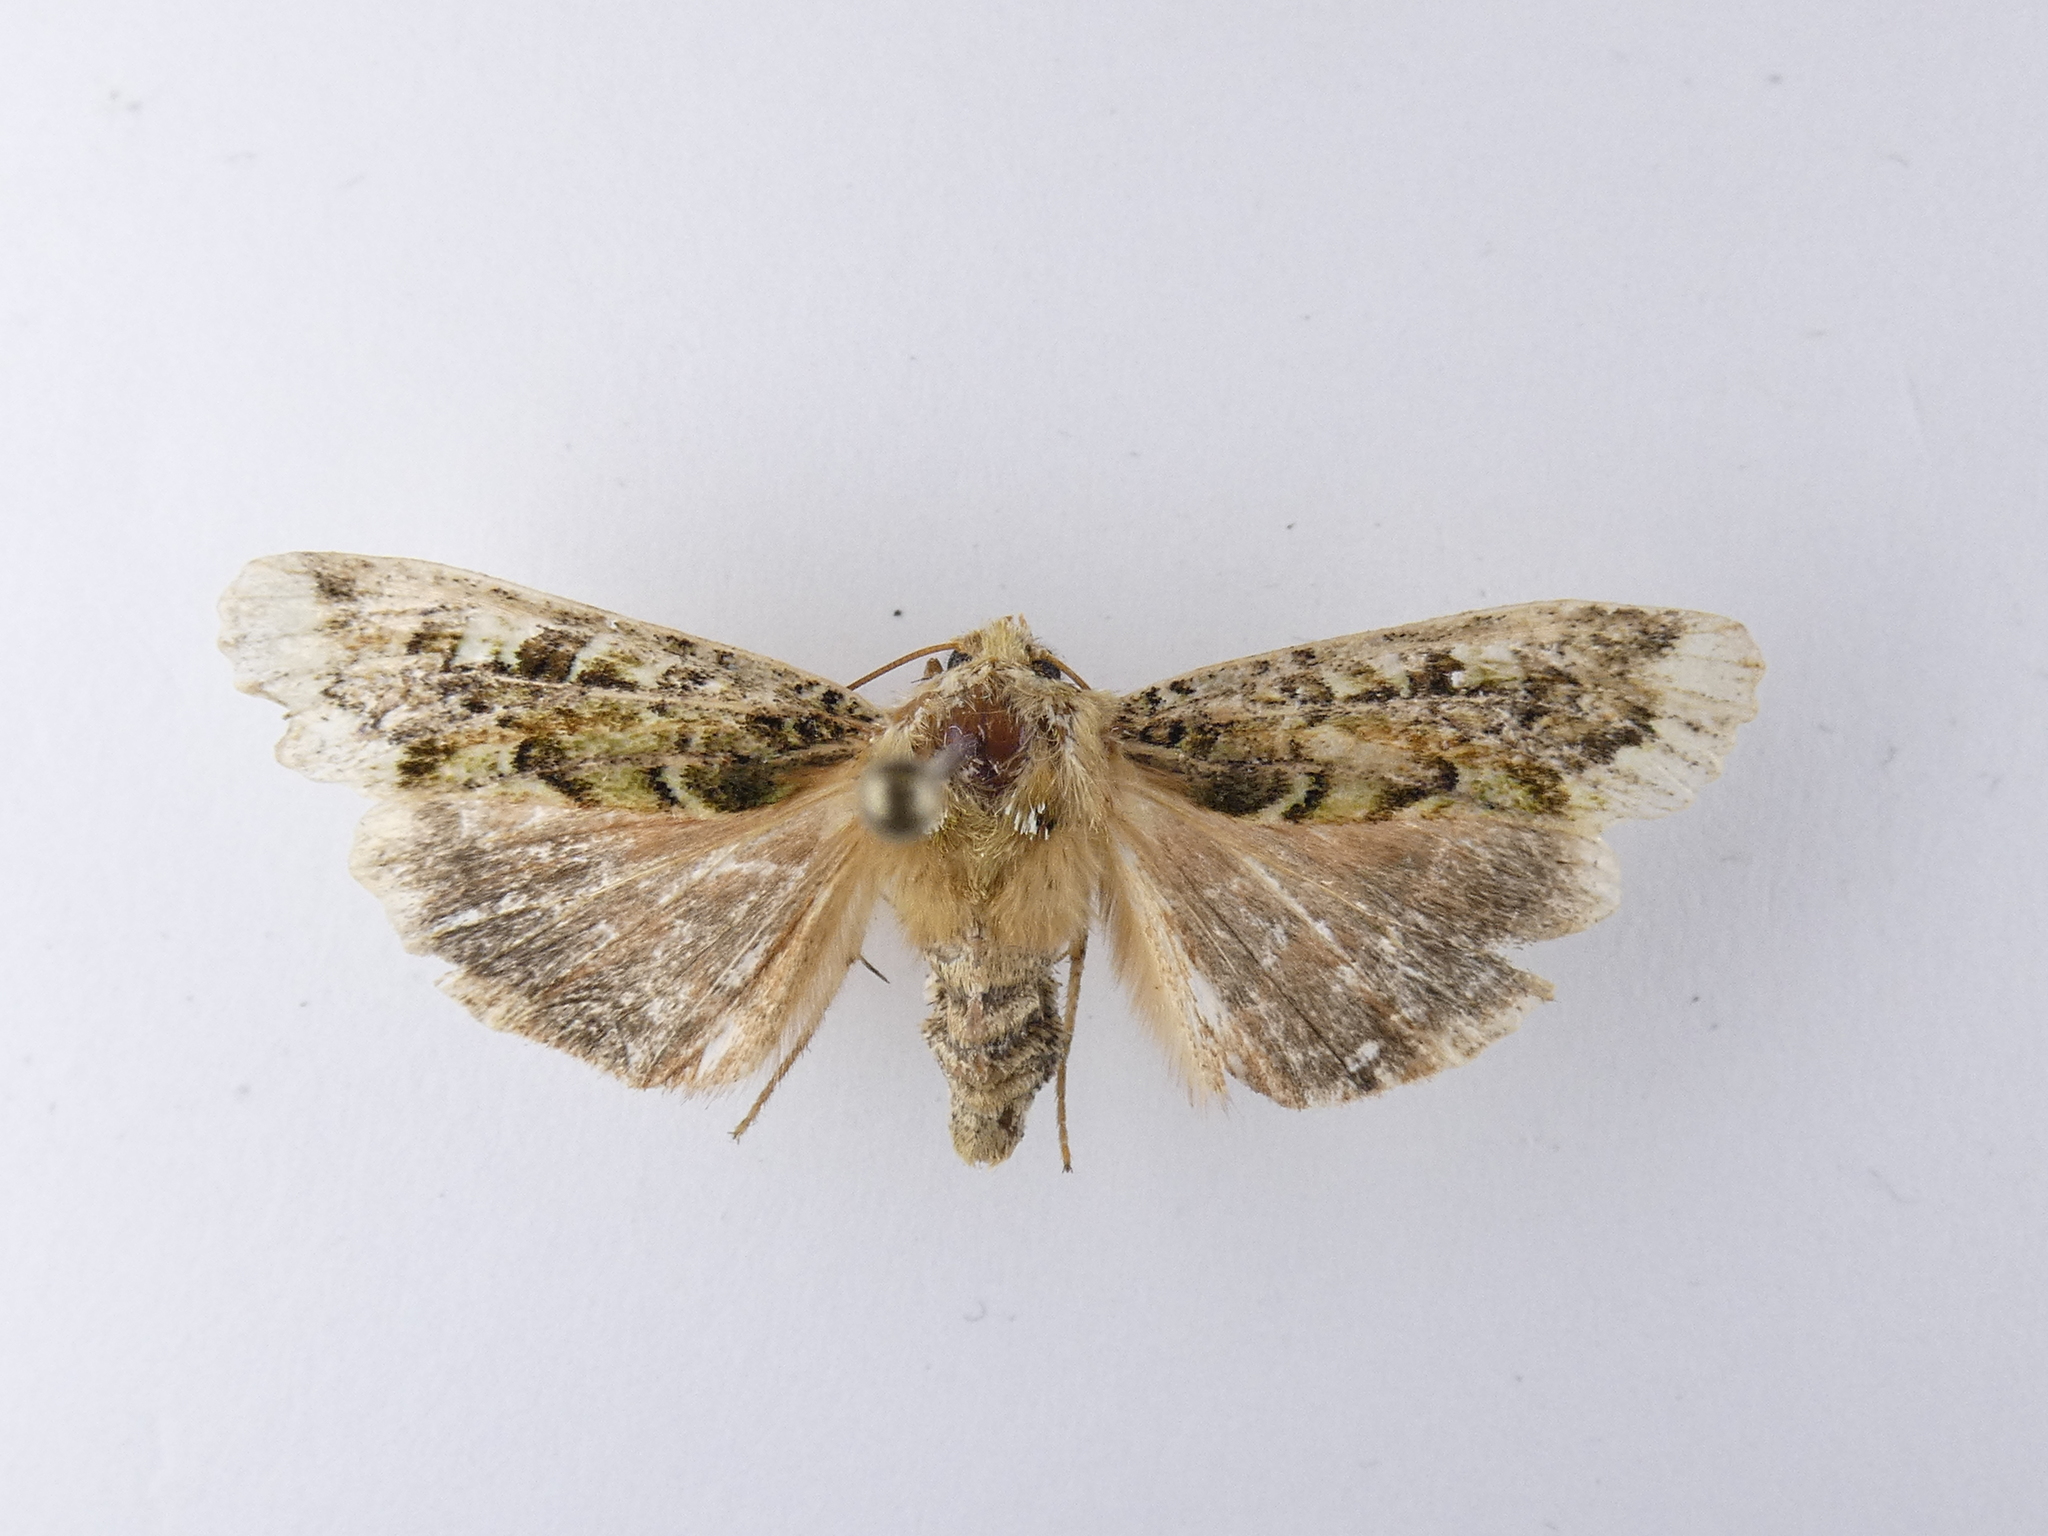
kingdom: Animalia
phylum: Arthropoda
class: Insecta
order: Lepidoptera
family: Noctuidae
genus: Feredayia
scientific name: Feredayia grammosa
